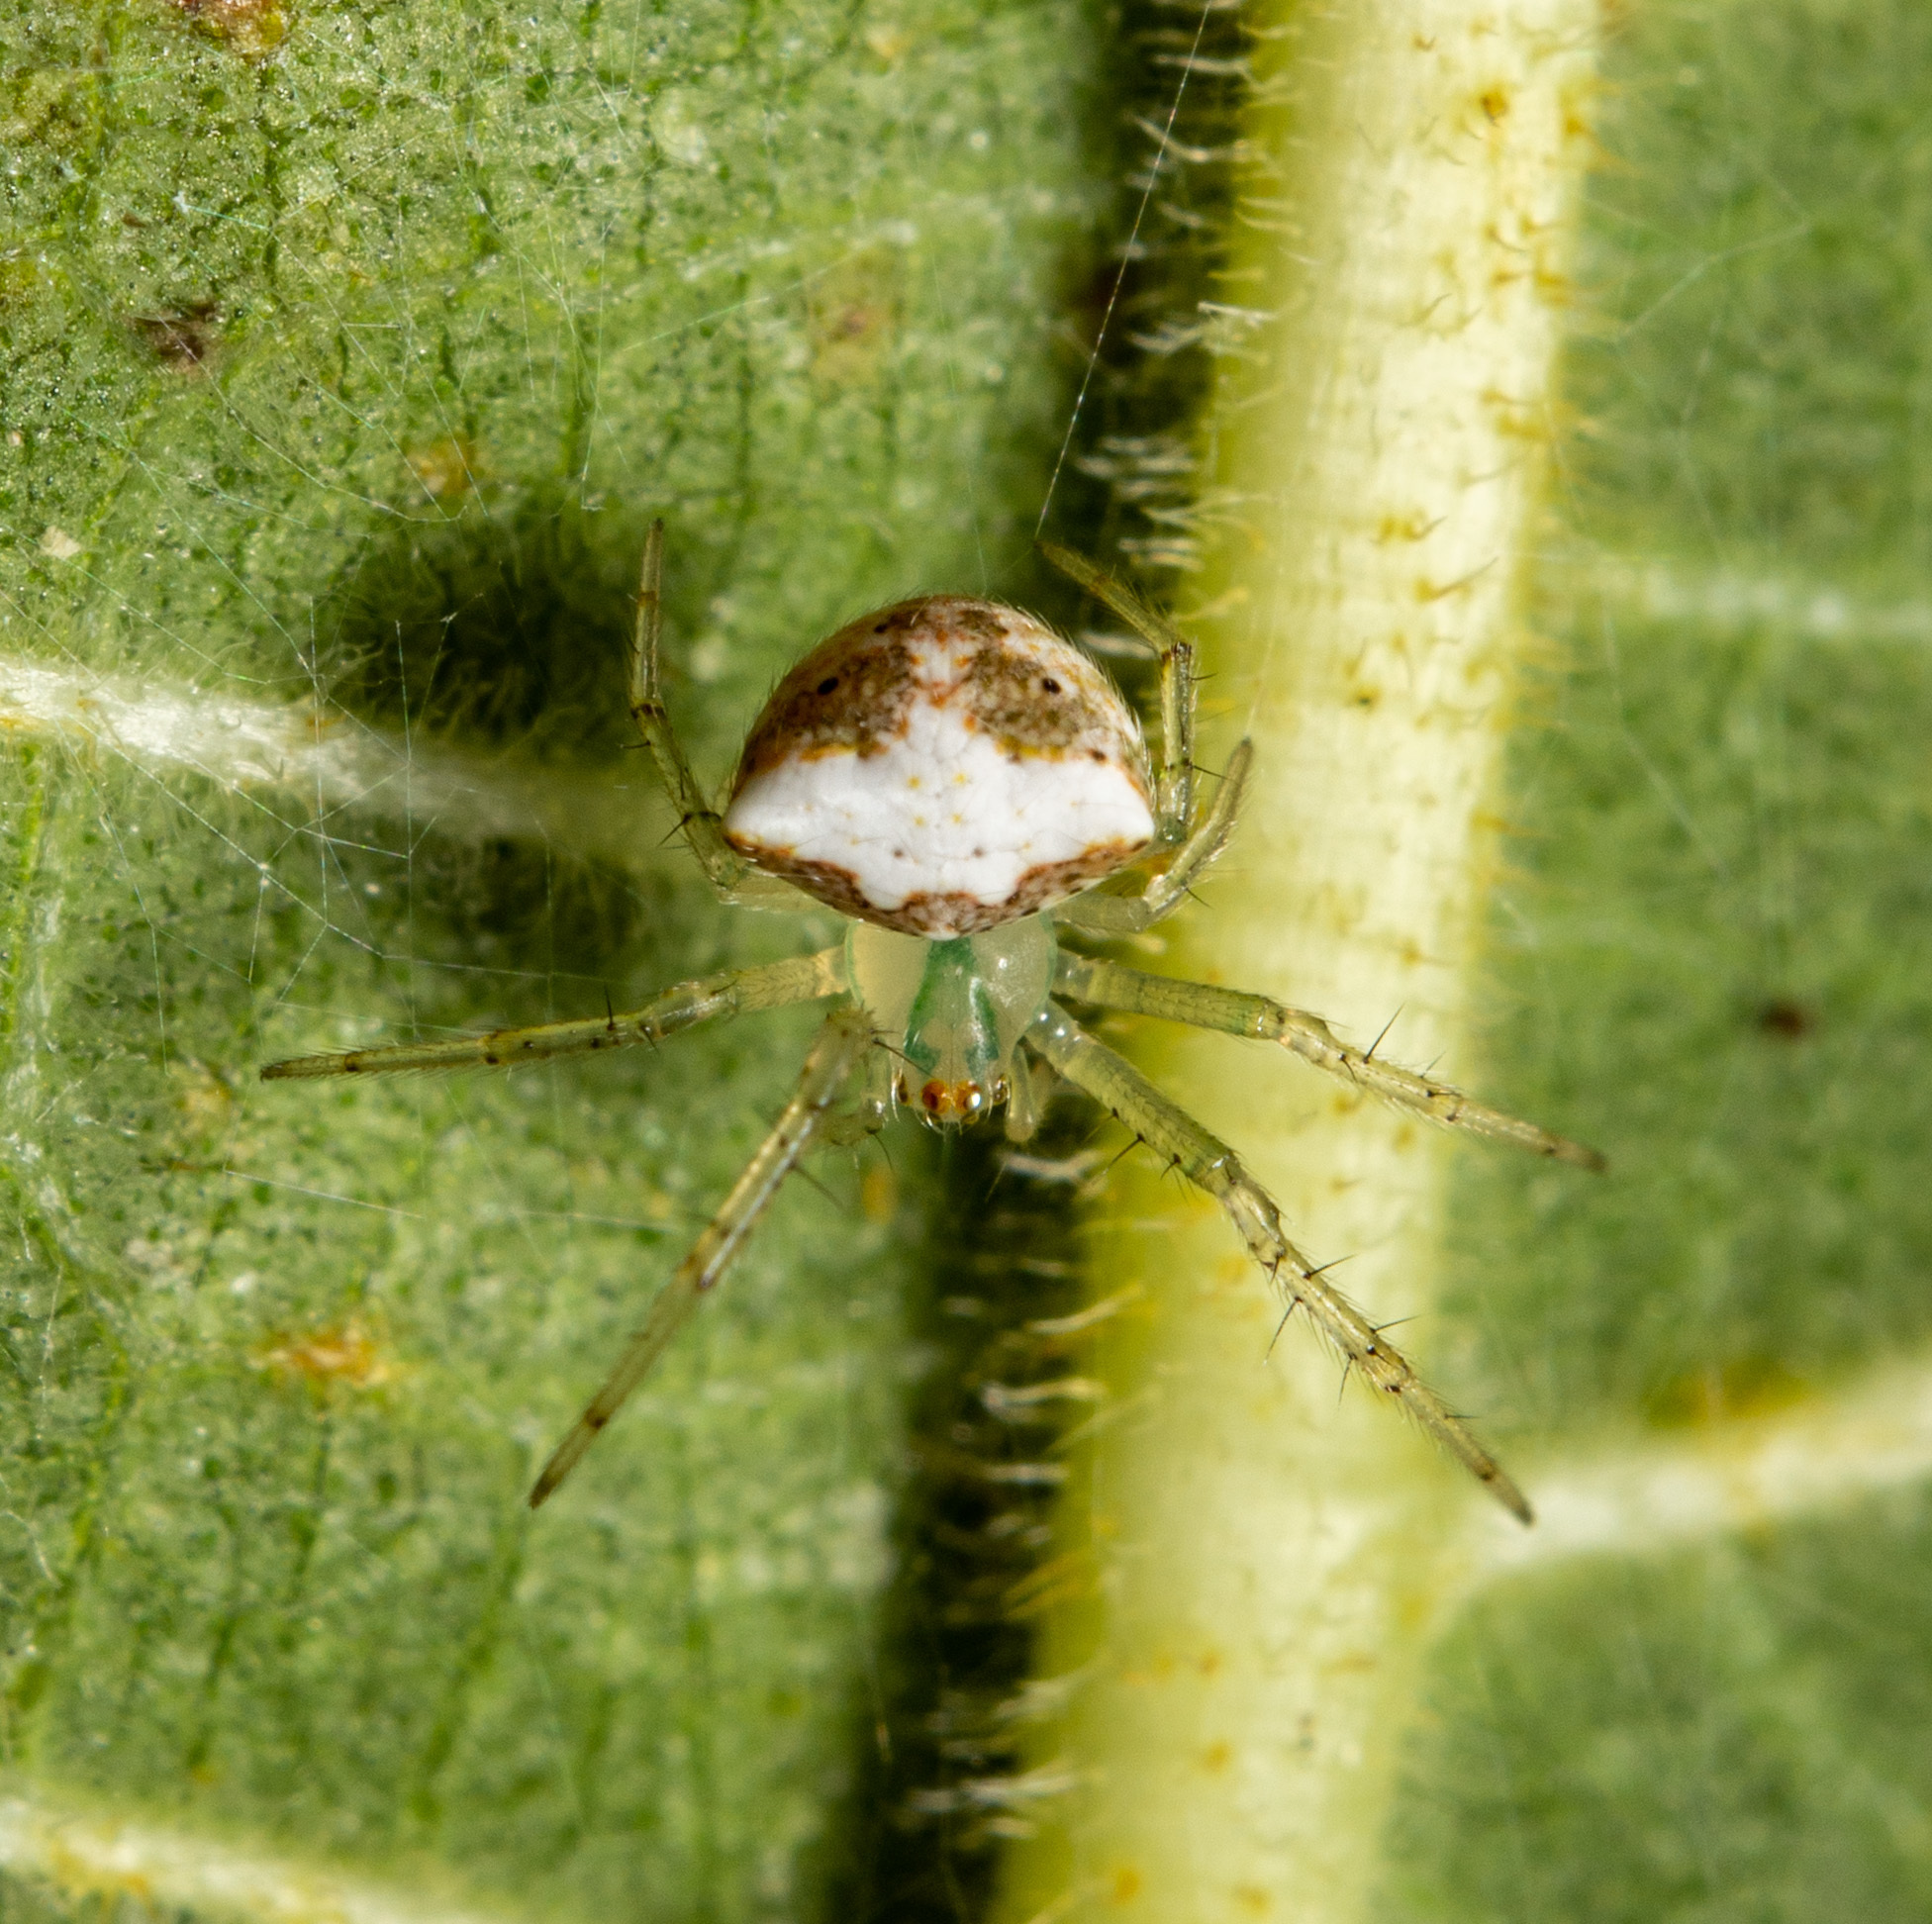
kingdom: Animalia
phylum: Arthropoda
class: Arachnida
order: Araneae
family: Araneidae
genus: Araneus
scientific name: Araneus miniatus
